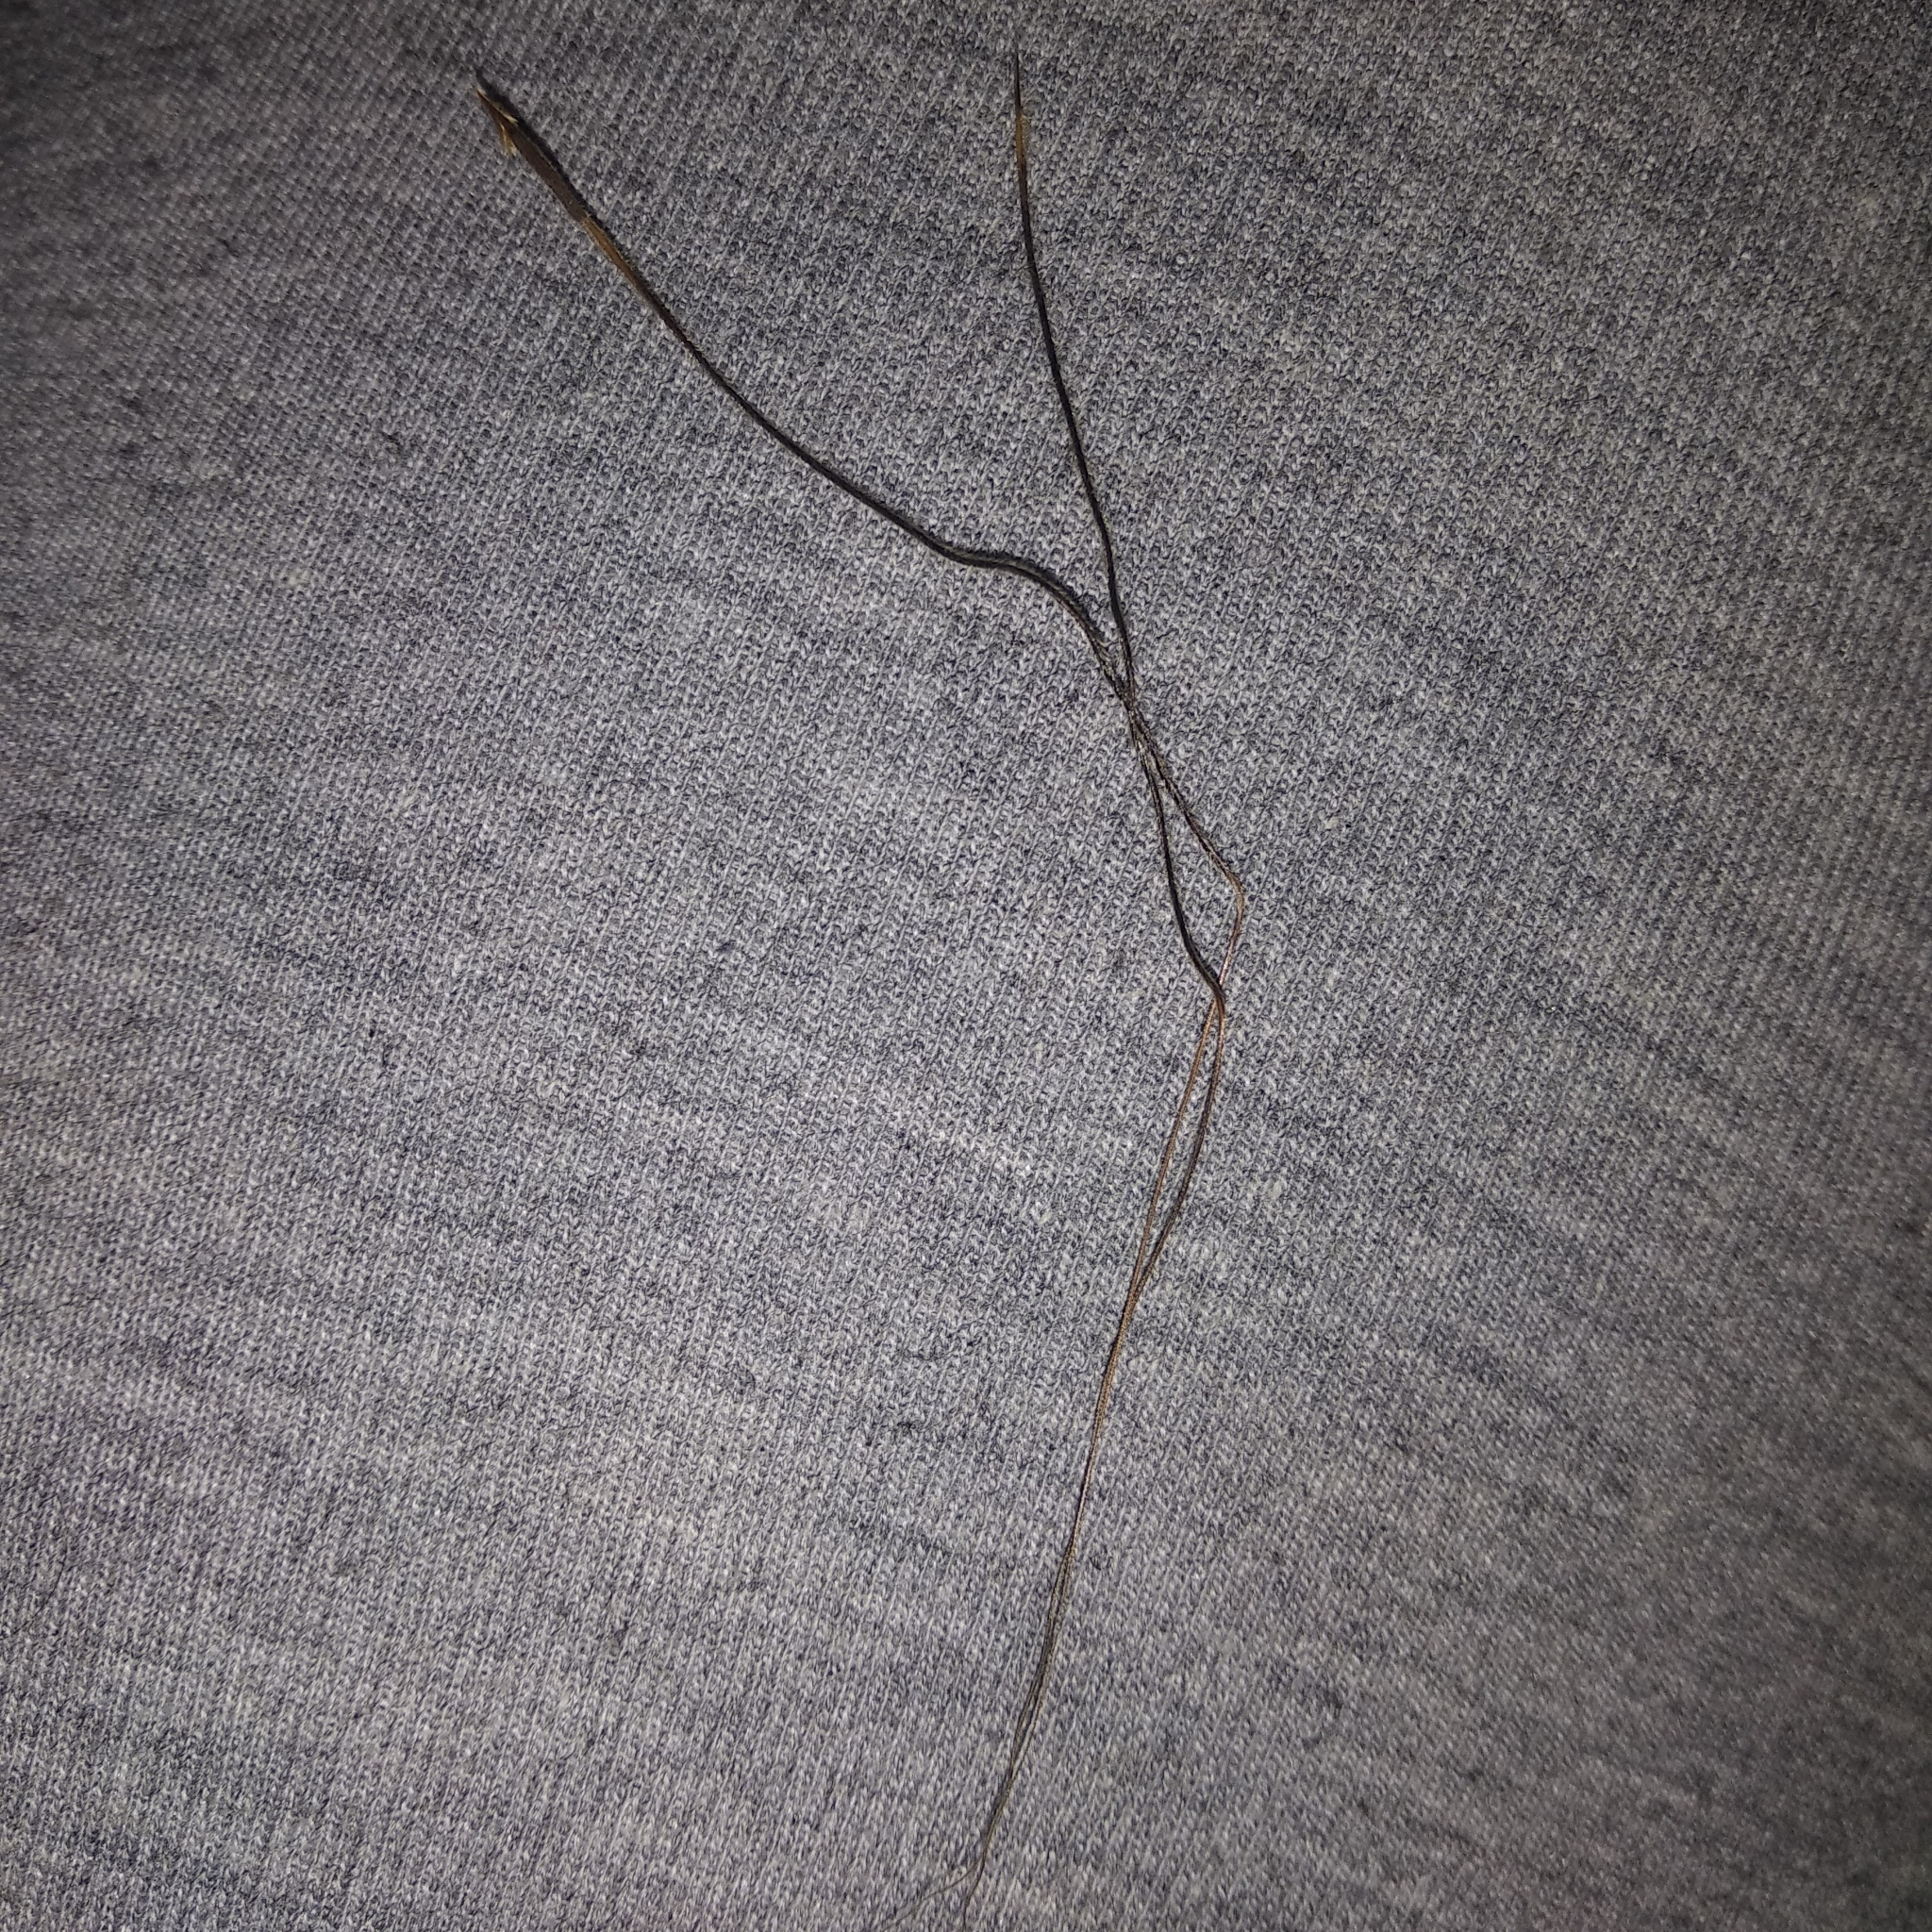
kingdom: Plantae
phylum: Tracheophyta
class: Liliopsida
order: Poales
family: Poaceae
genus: Heteropogon
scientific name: Heteropogon contortus
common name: Tanglehead
